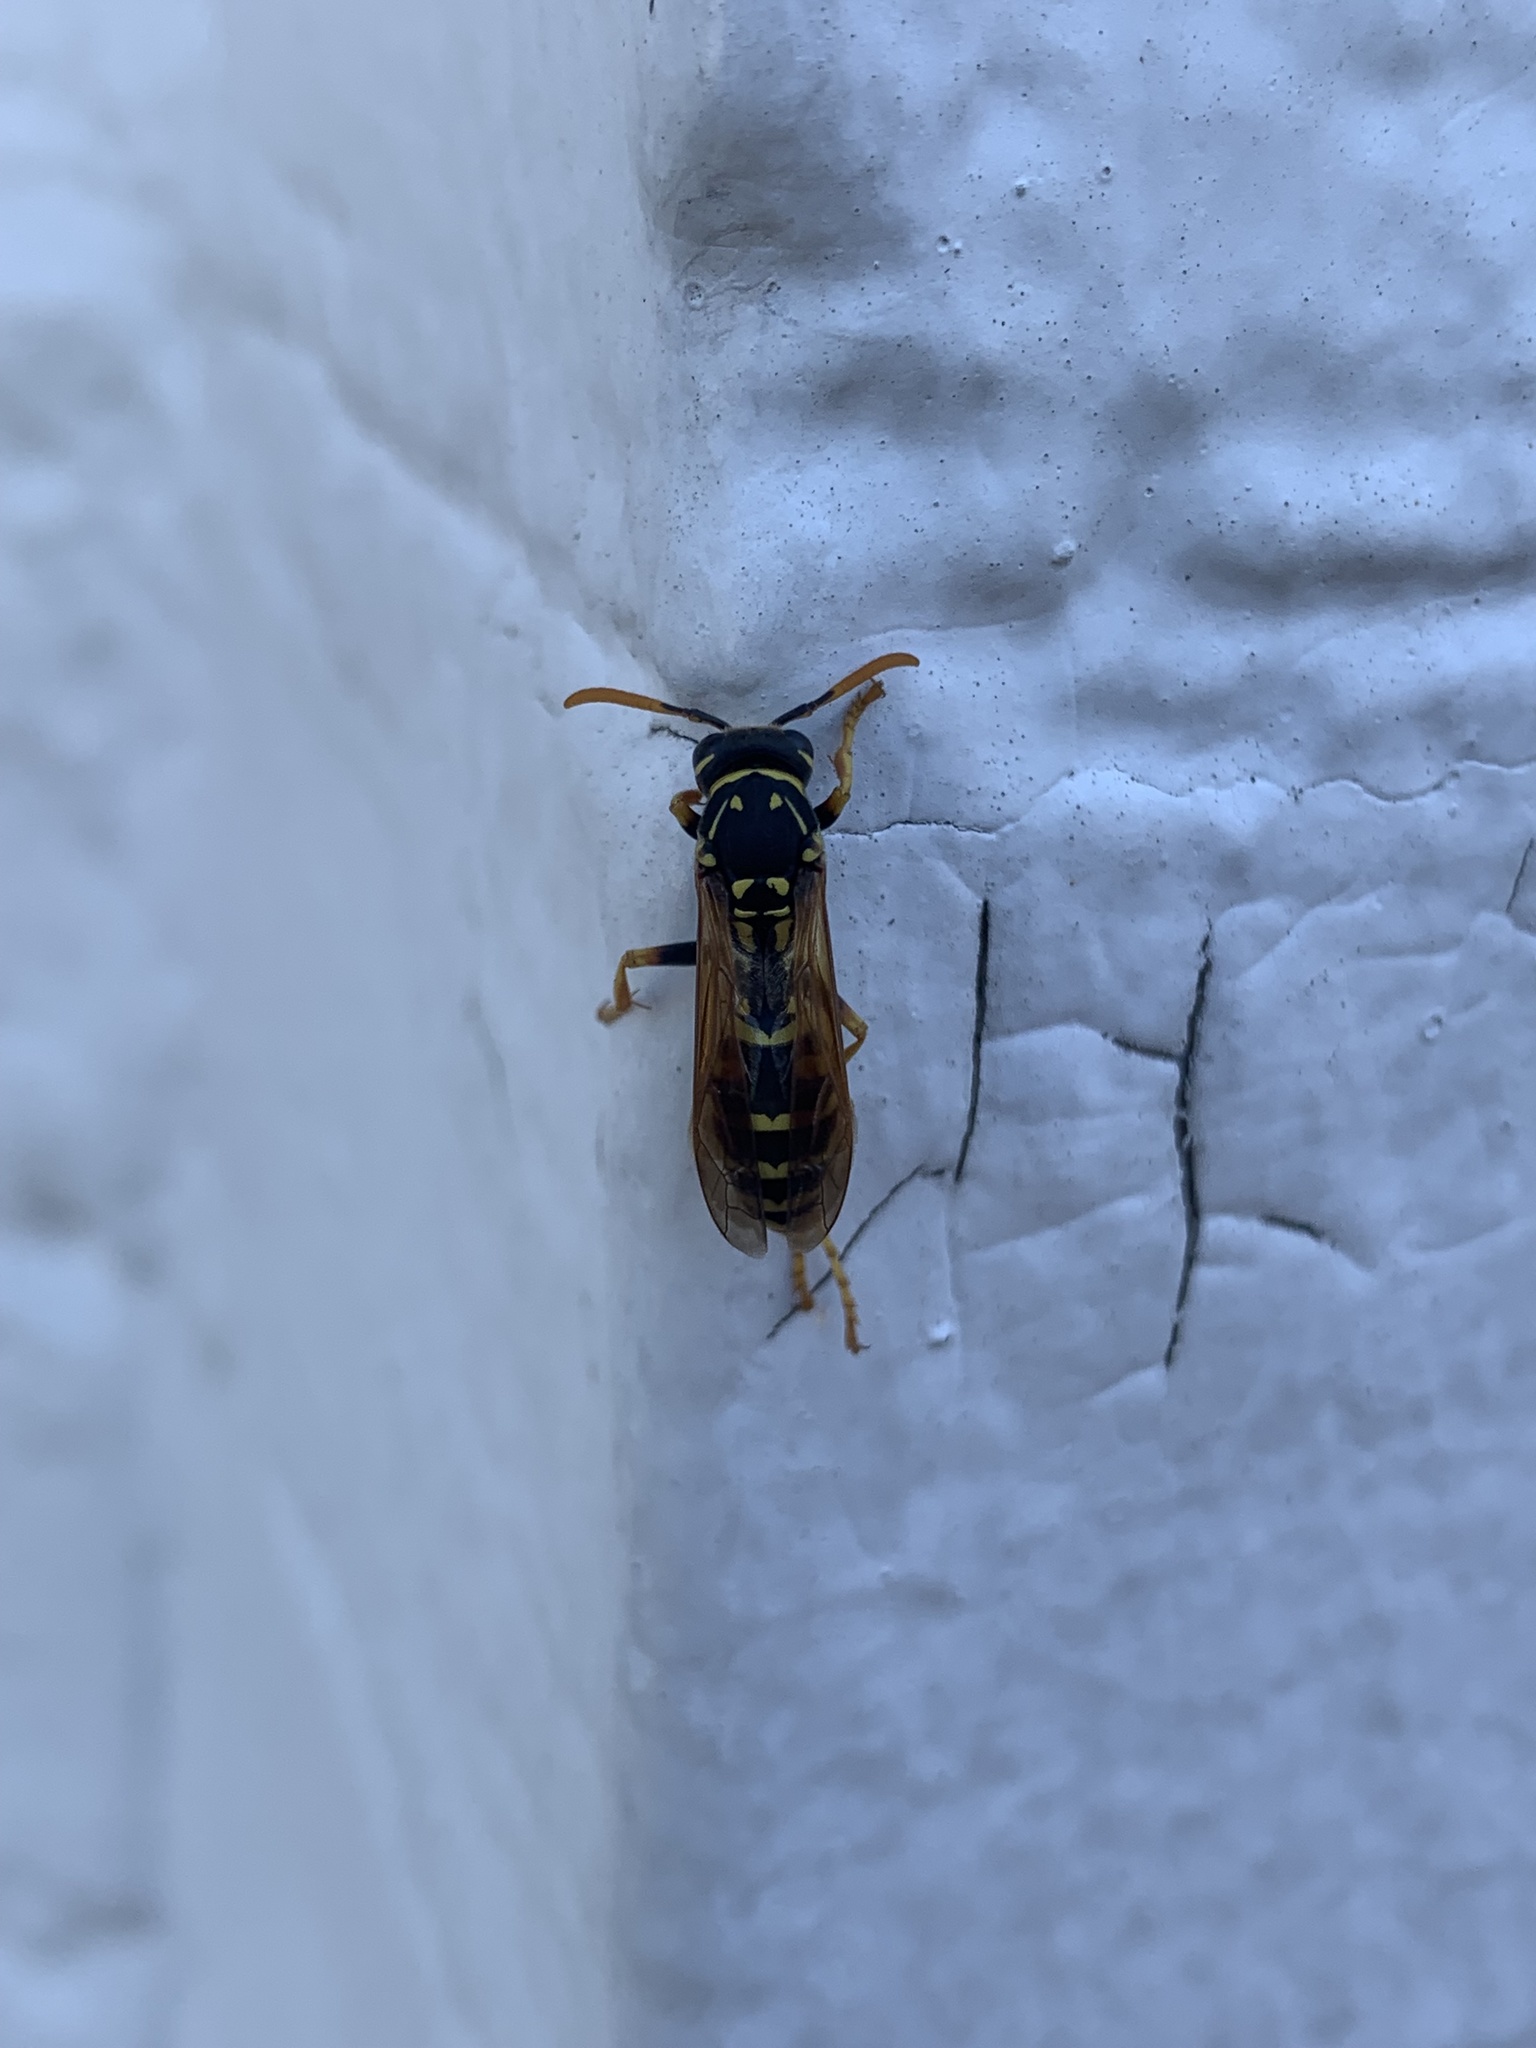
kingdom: Animalia
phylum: Arthropoda
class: Insecta
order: Hymenoptera
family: Eumenidae
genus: Polistes
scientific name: Polistes dominula
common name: Paper wasp
